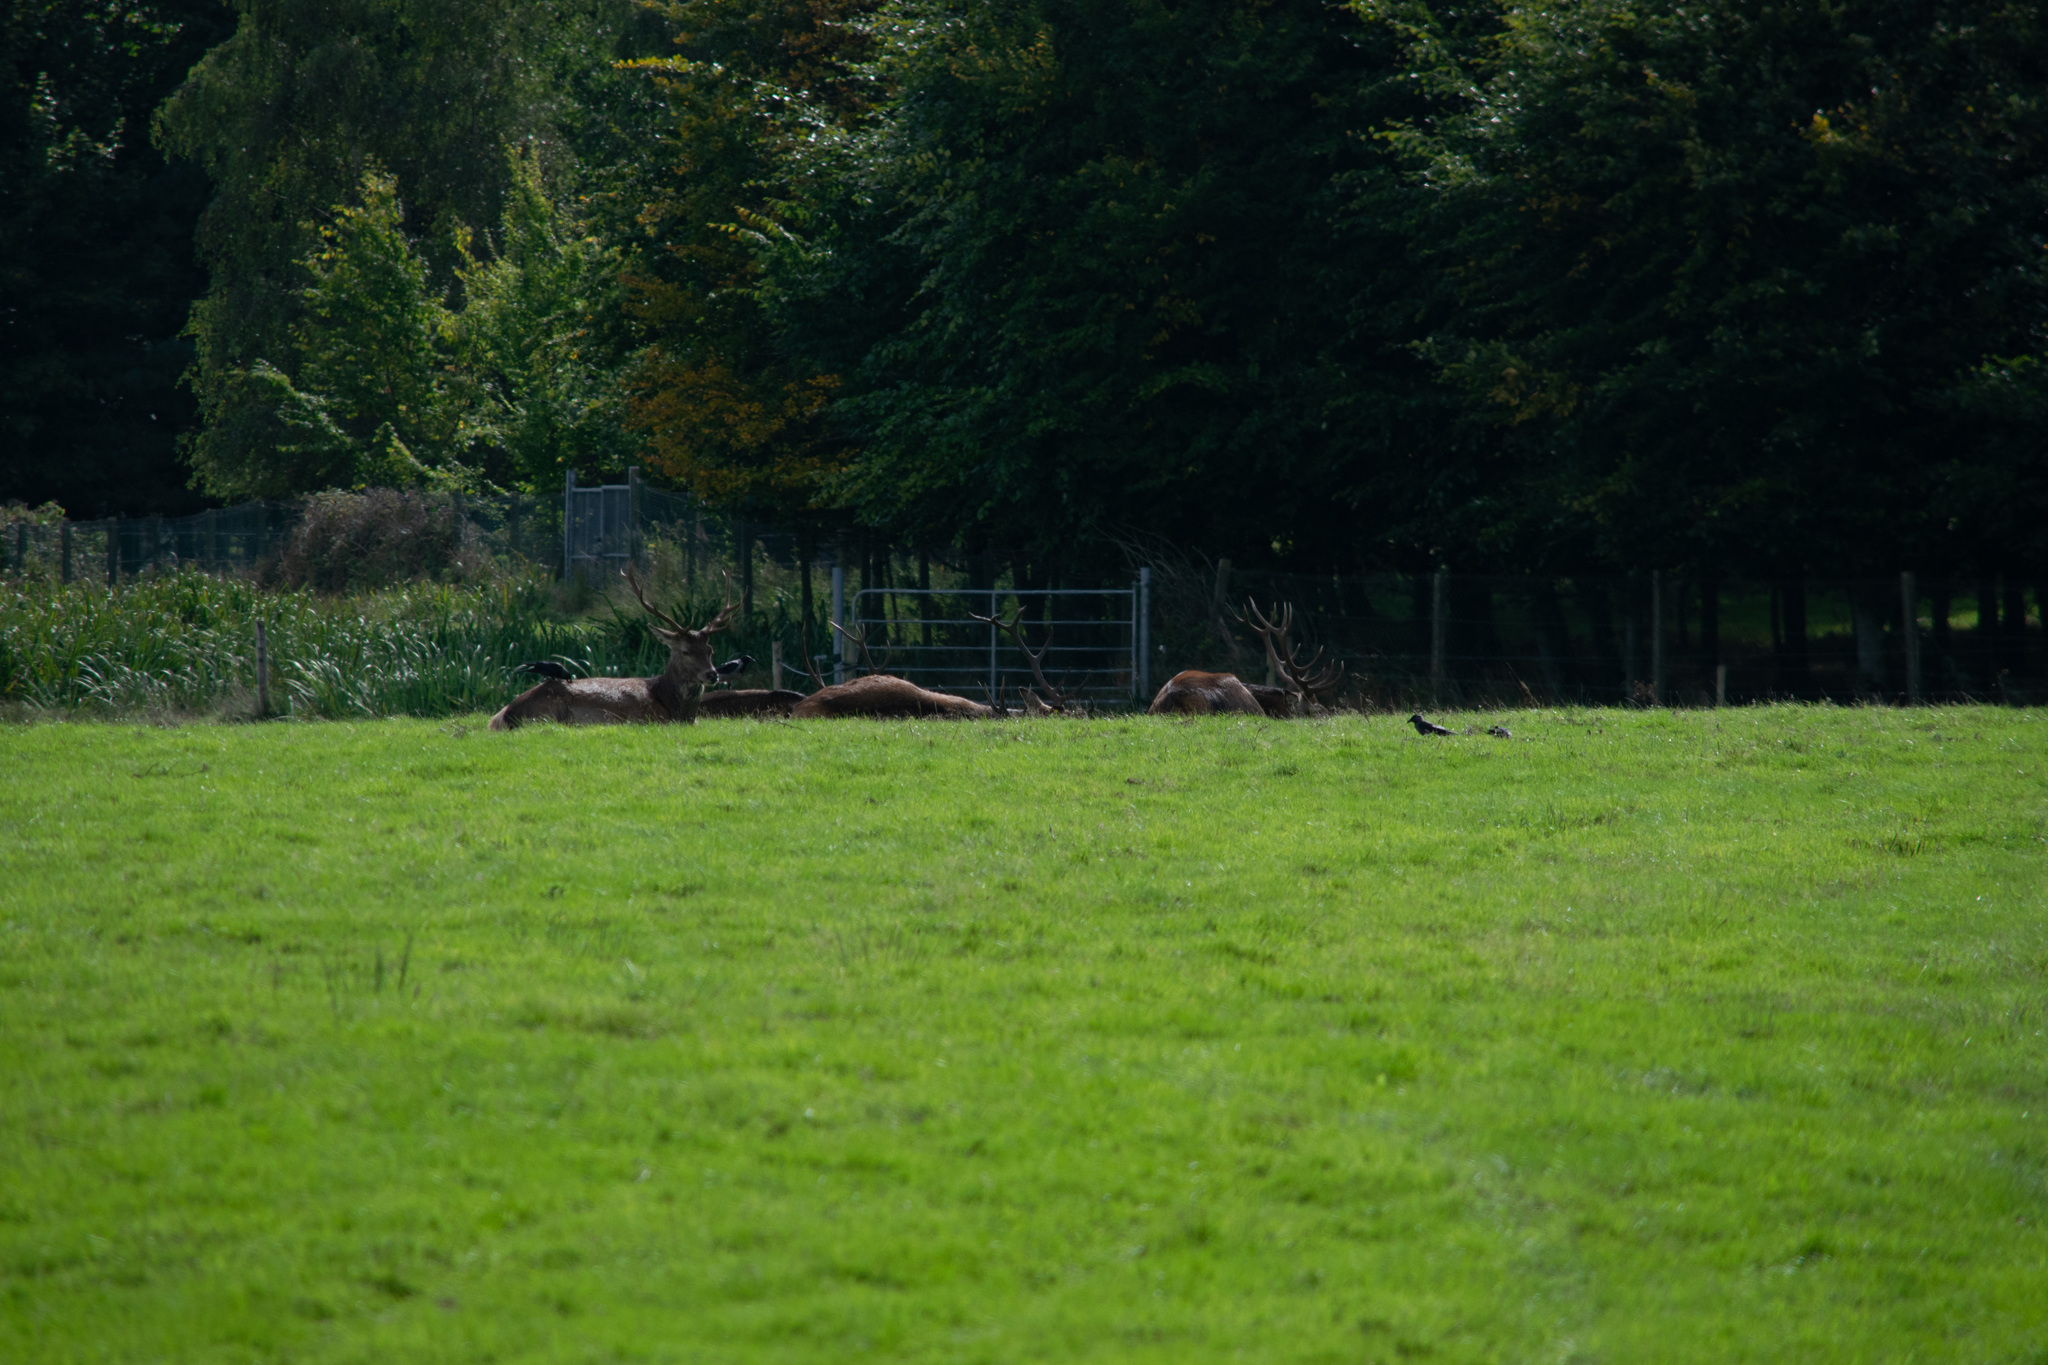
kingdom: Animalia
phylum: Chordata
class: Mammalia
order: Artiodactyla
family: Cervidae
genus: Cervus
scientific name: Cervus elaphus
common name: Red deer
